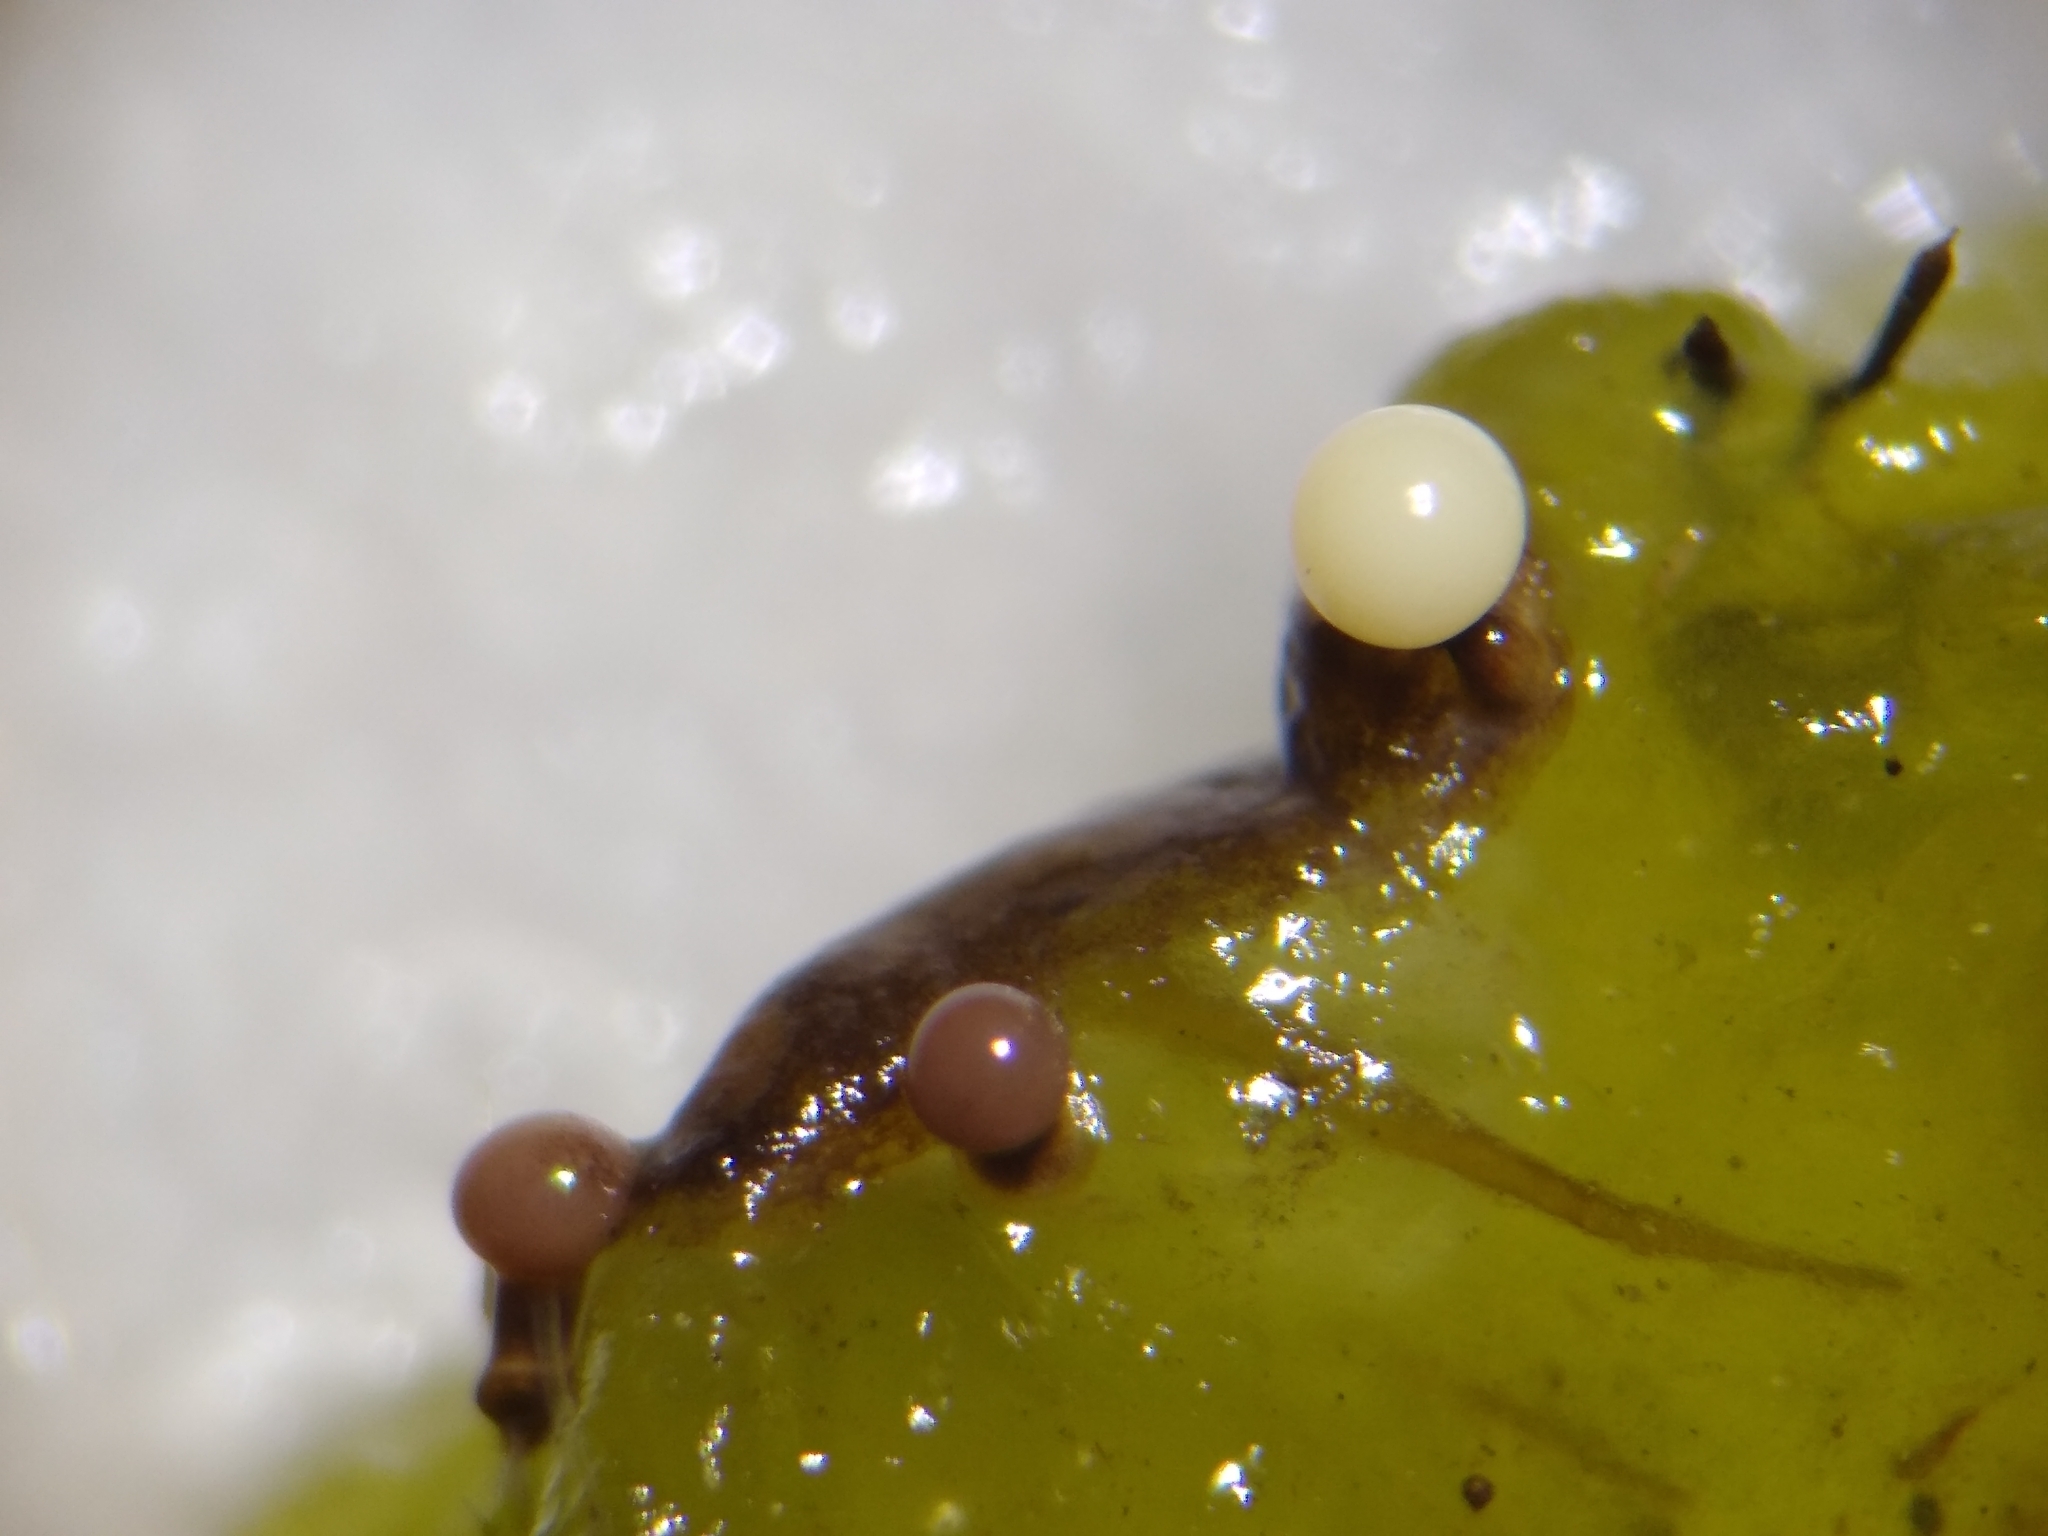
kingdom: Protozoa
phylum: Mycetozoa
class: Myxomycetes
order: Physarales
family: Elaeomyxaceae
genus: Elaeomyxa
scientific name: Elaeomyxa cerifera
